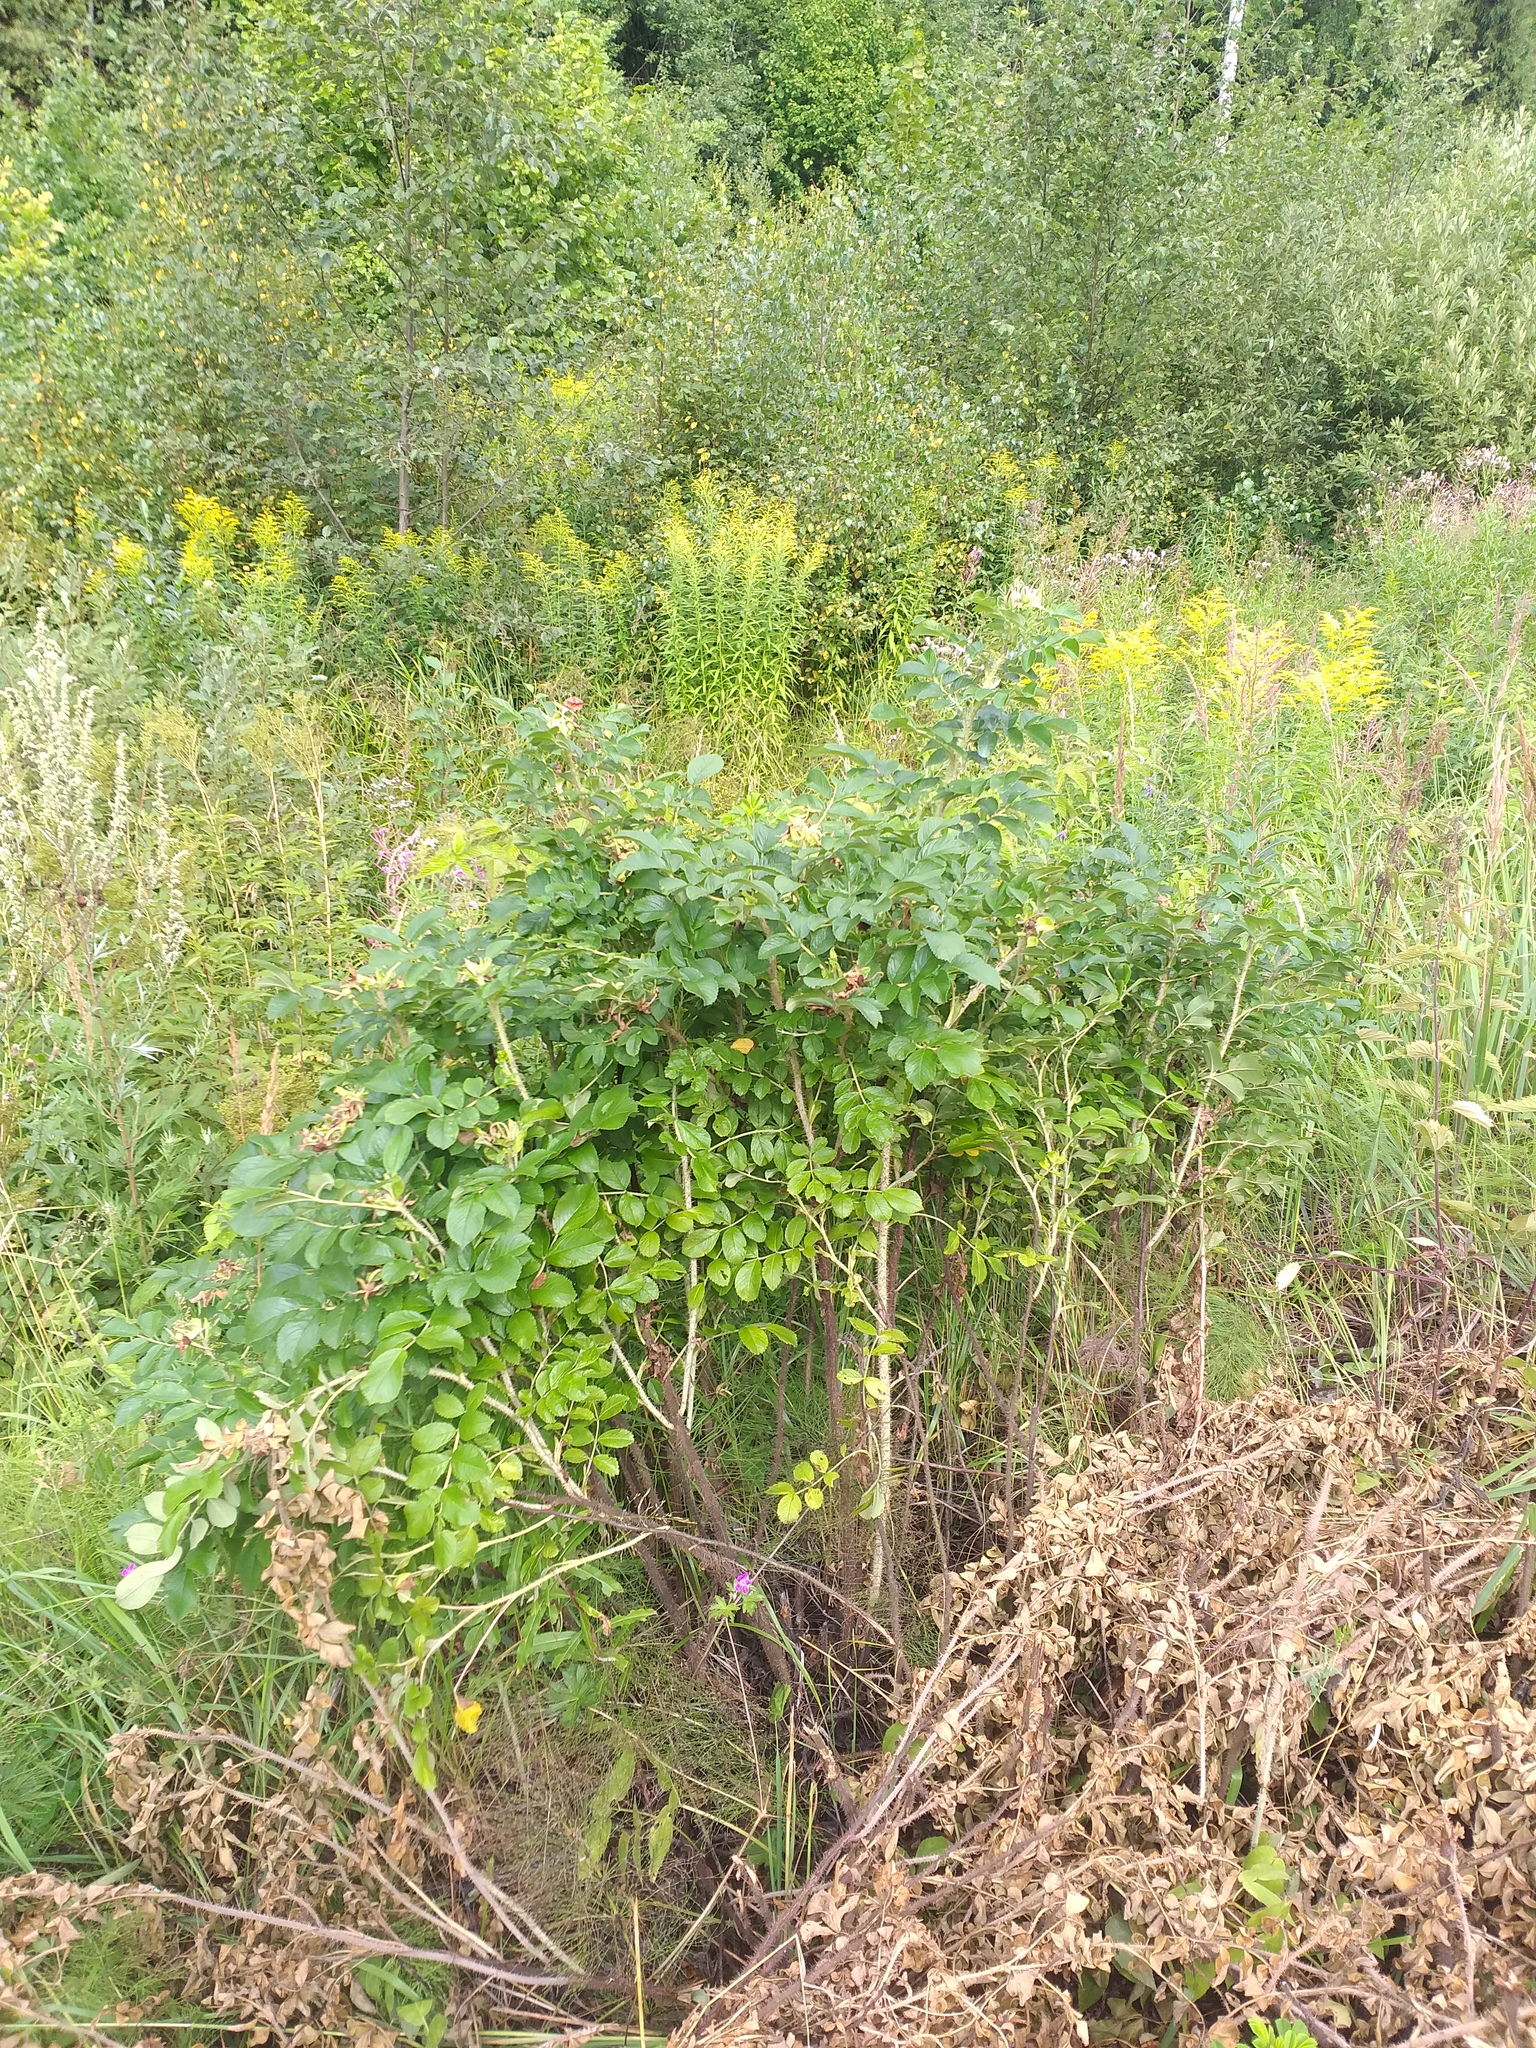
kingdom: Plantae
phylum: Tracheophyta
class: Magnoliopsida
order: Rosales
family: Rosaceae
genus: Rosa
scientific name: Rosa rugosa
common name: Japanese rose
